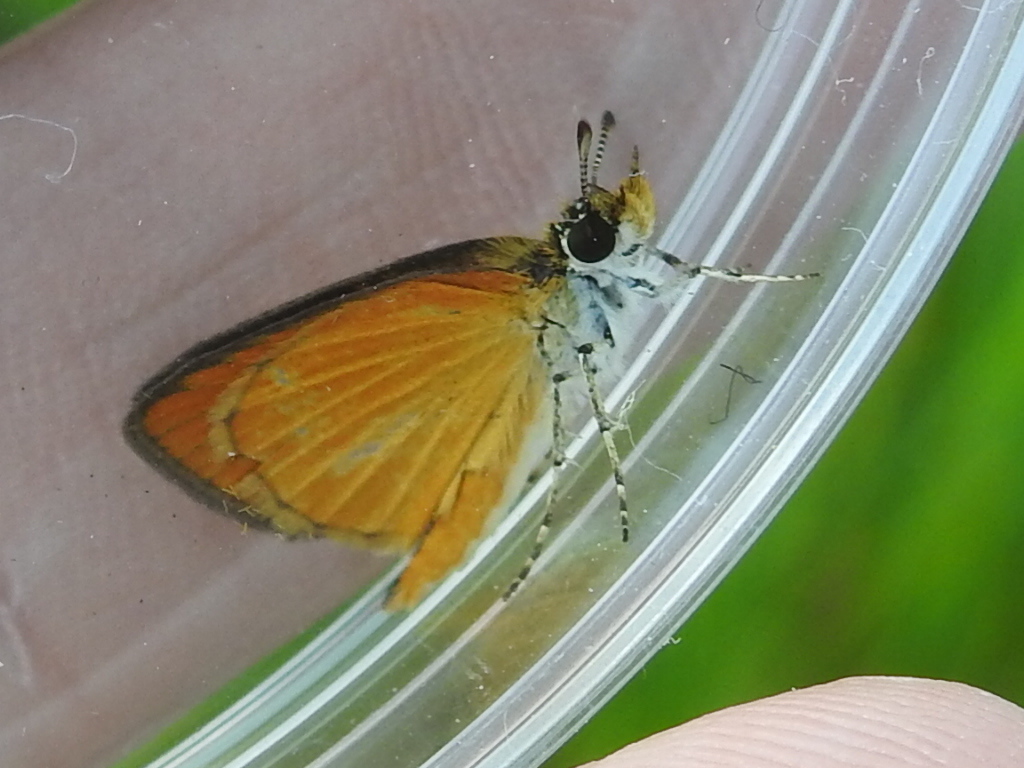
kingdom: Animalia
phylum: Arthropoda
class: Insecta
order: Lepidoptera
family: Hesperiidae
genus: Ancyloxypha
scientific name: Ancyloxypha numitor
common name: Least skipper
